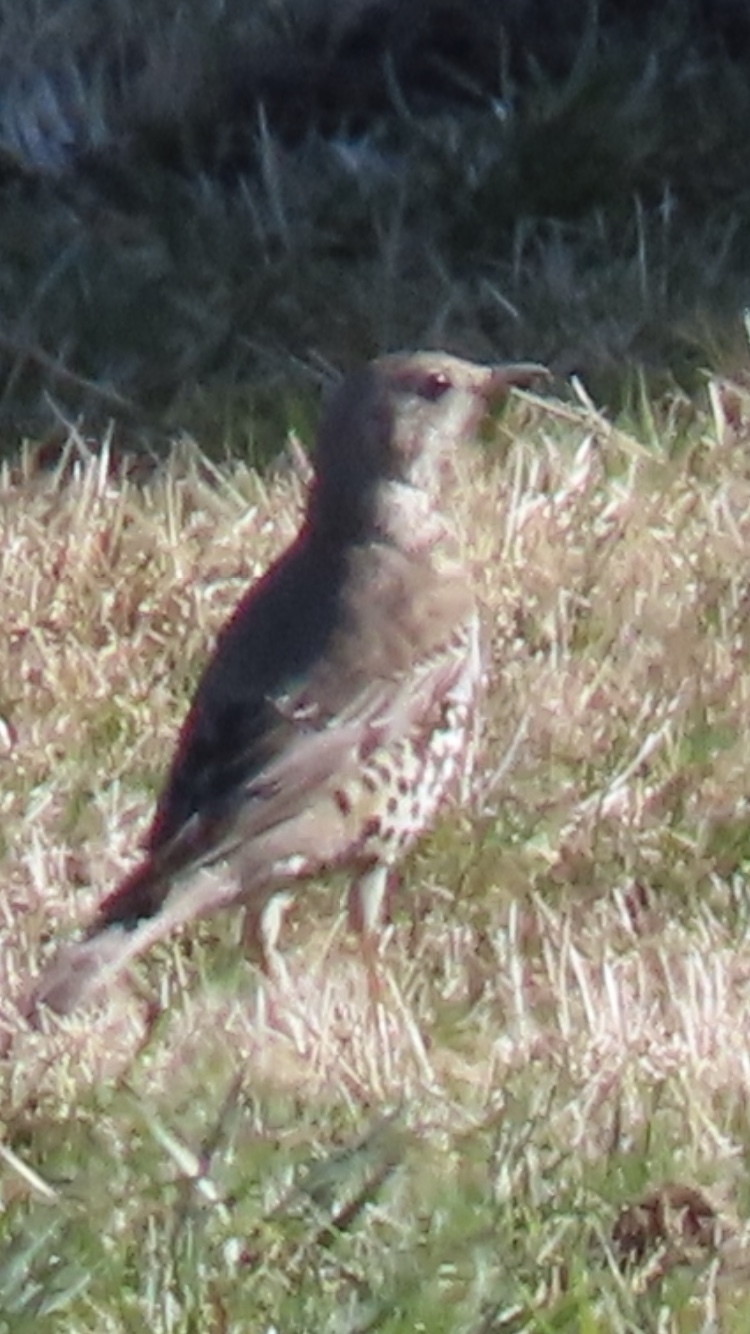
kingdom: Animalia
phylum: Chordata
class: Aves
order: Passeriformes
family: Turdidae
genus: Turdus
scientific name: Turdus viscivorus
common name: Mistle thrush
